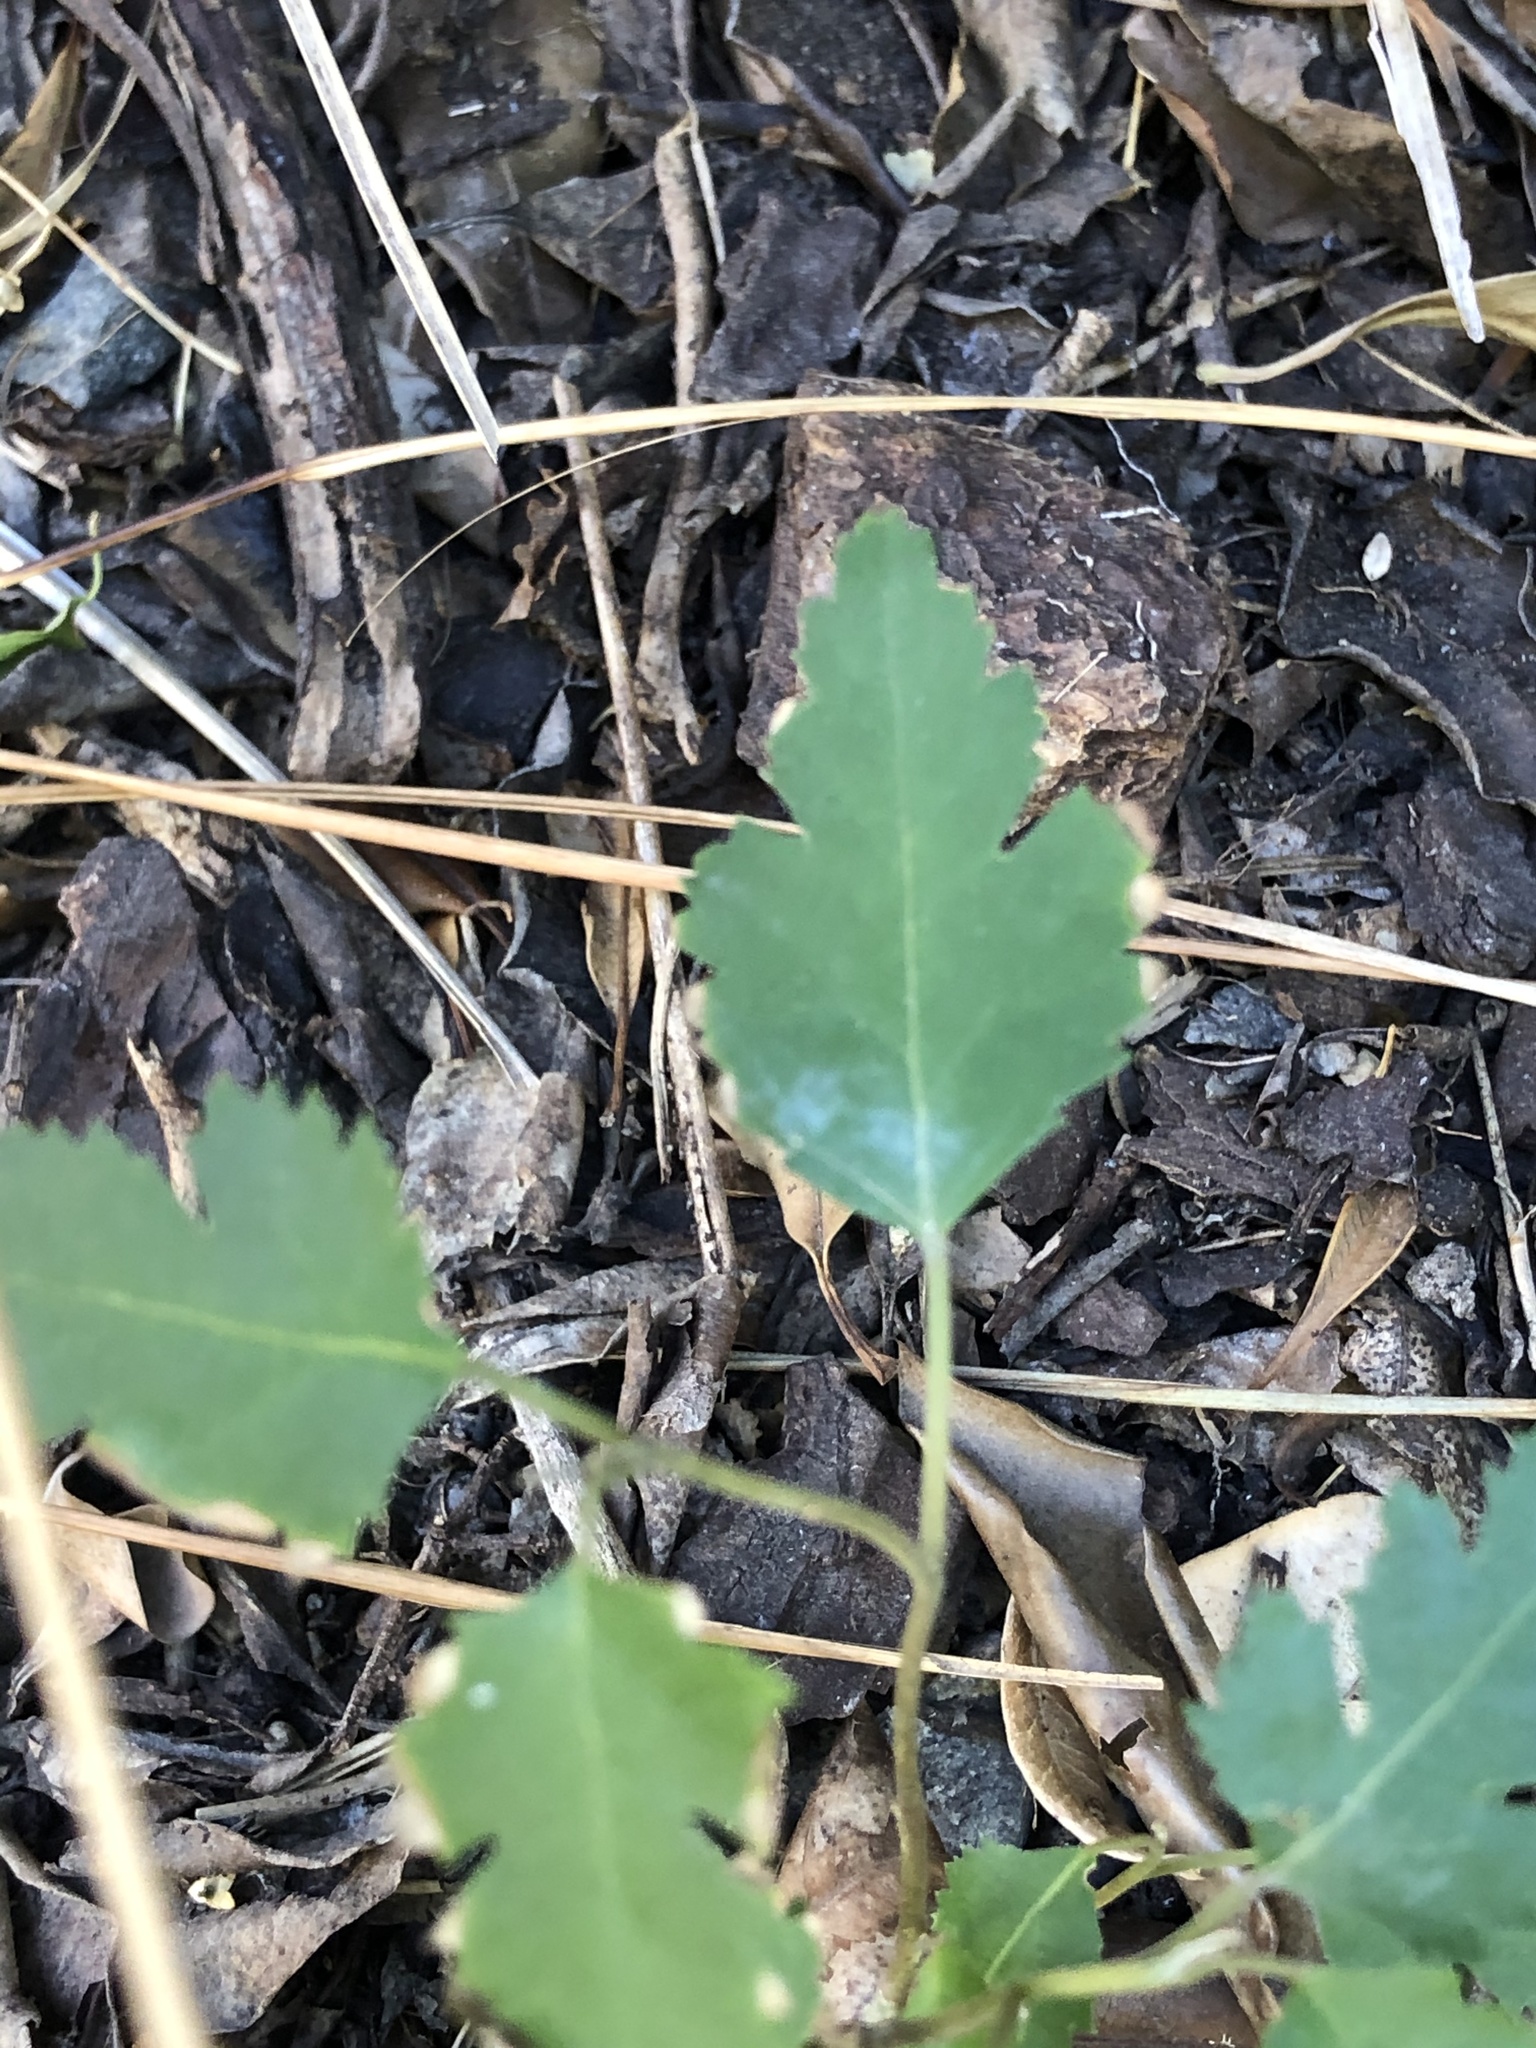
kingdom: Plantae
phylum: Tracheophyta
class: Magnoliopsida
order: Malvales
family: Malvaceae
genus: Plagianthus
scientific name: Plagianthus regius
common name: Manatu
